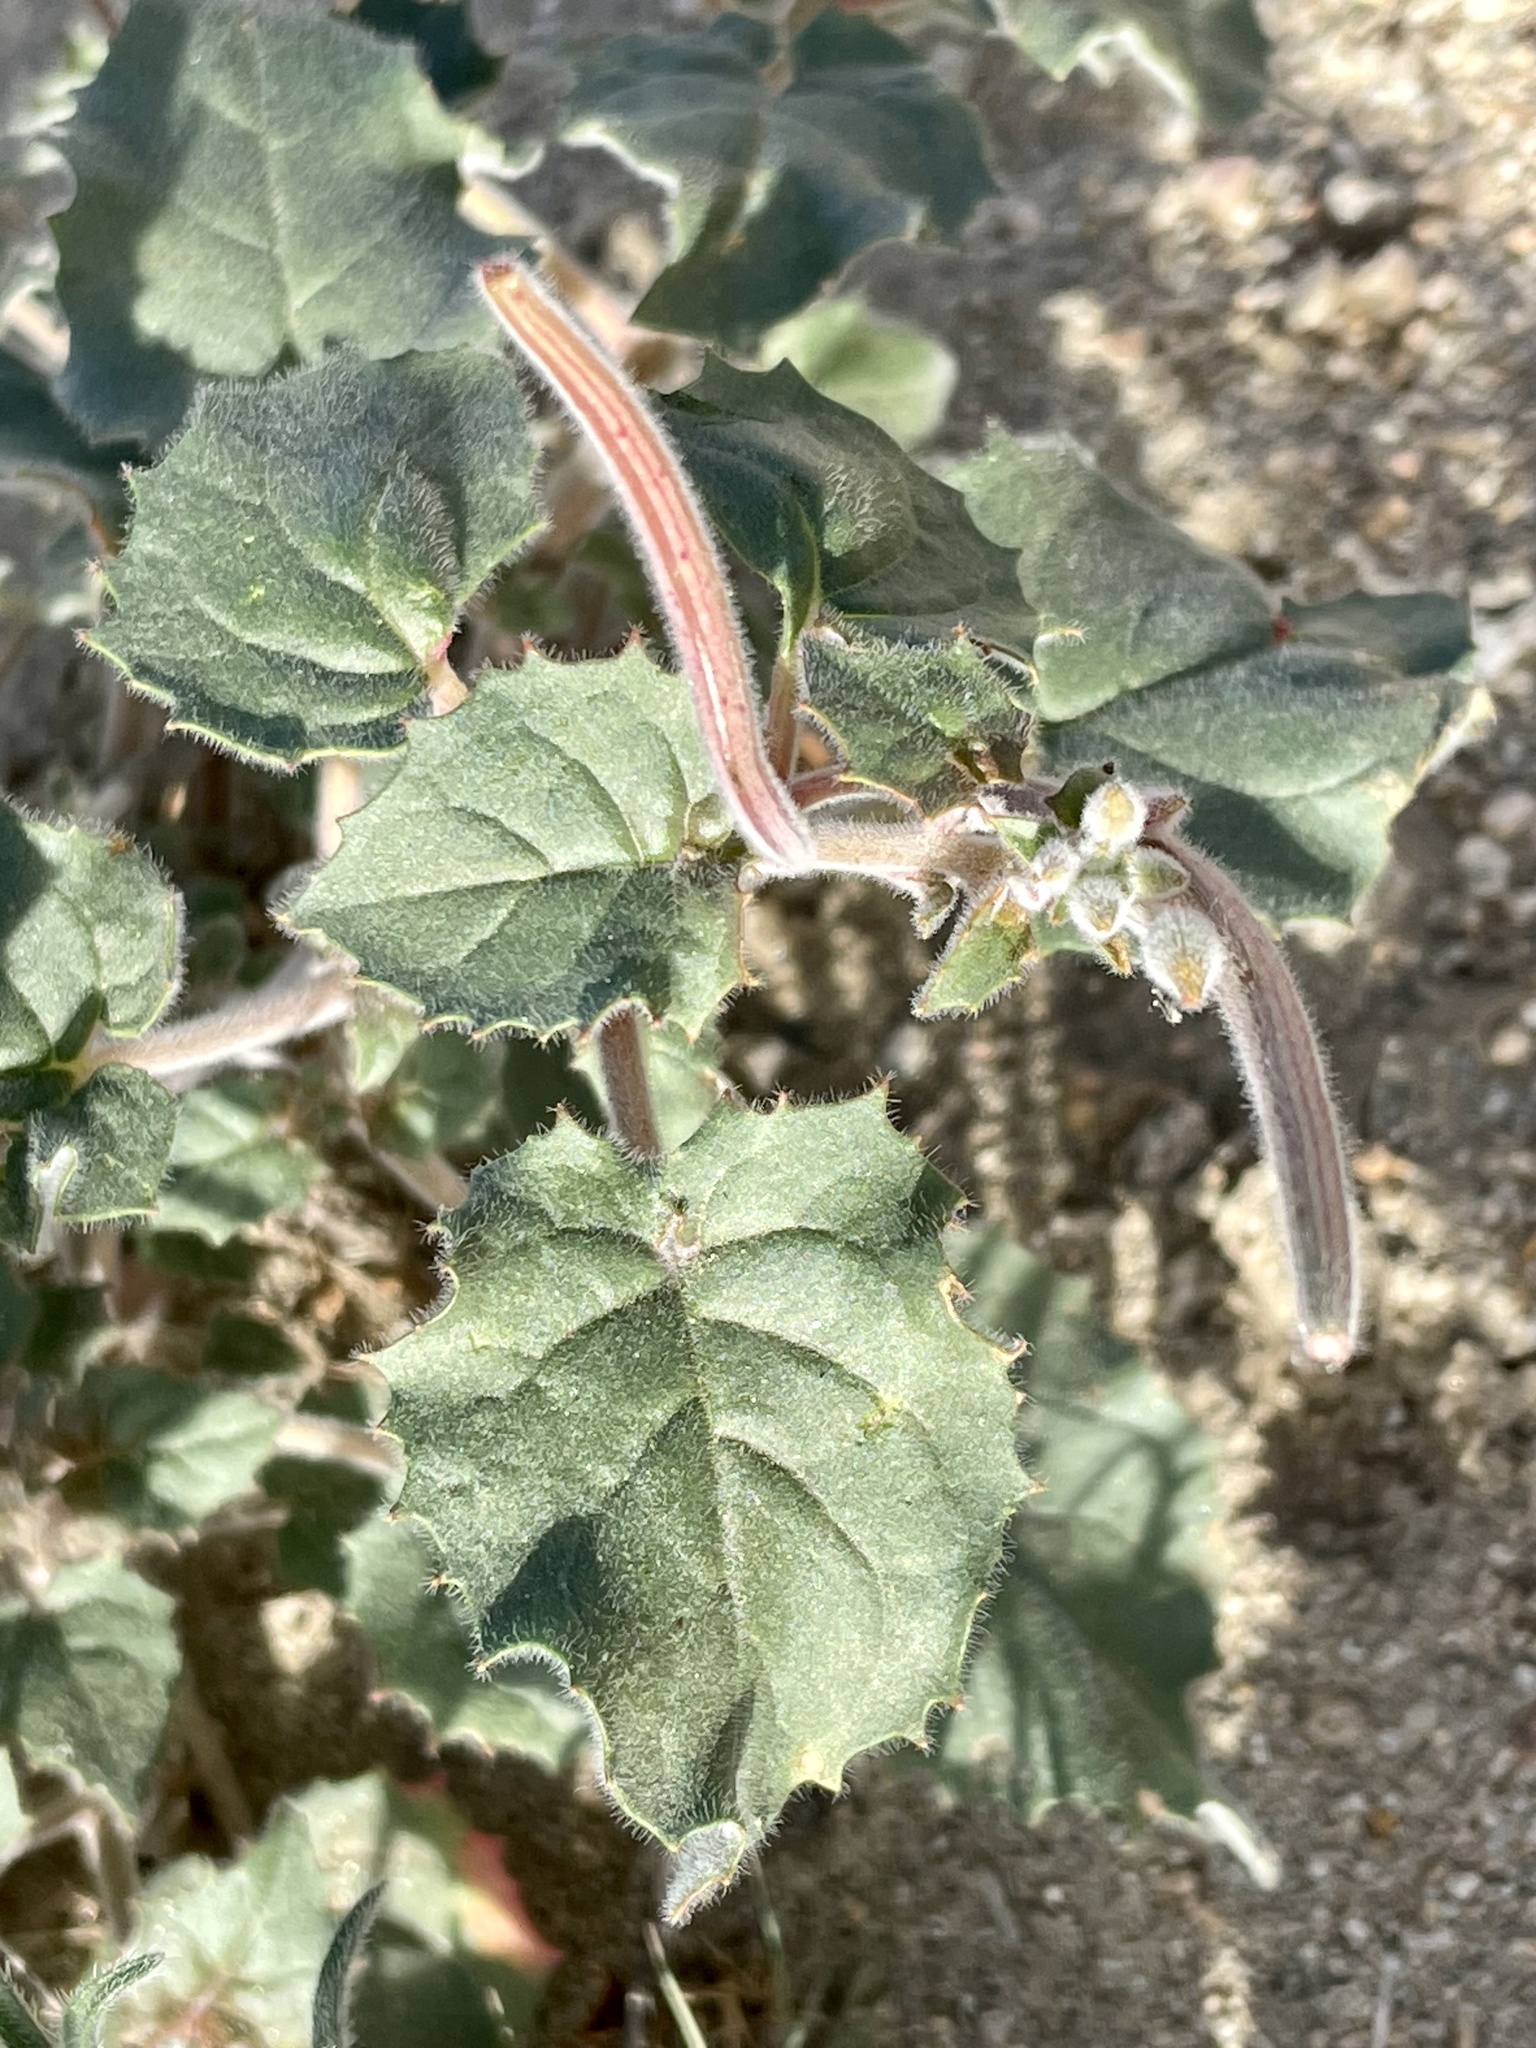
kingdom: Plantae
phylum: Tracheophyta
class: Magnoliopsida
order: Myrtales
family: Onagraceae
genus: Chylismia
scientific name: Chylismia cardiophylla
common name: Heartleaf suncup
